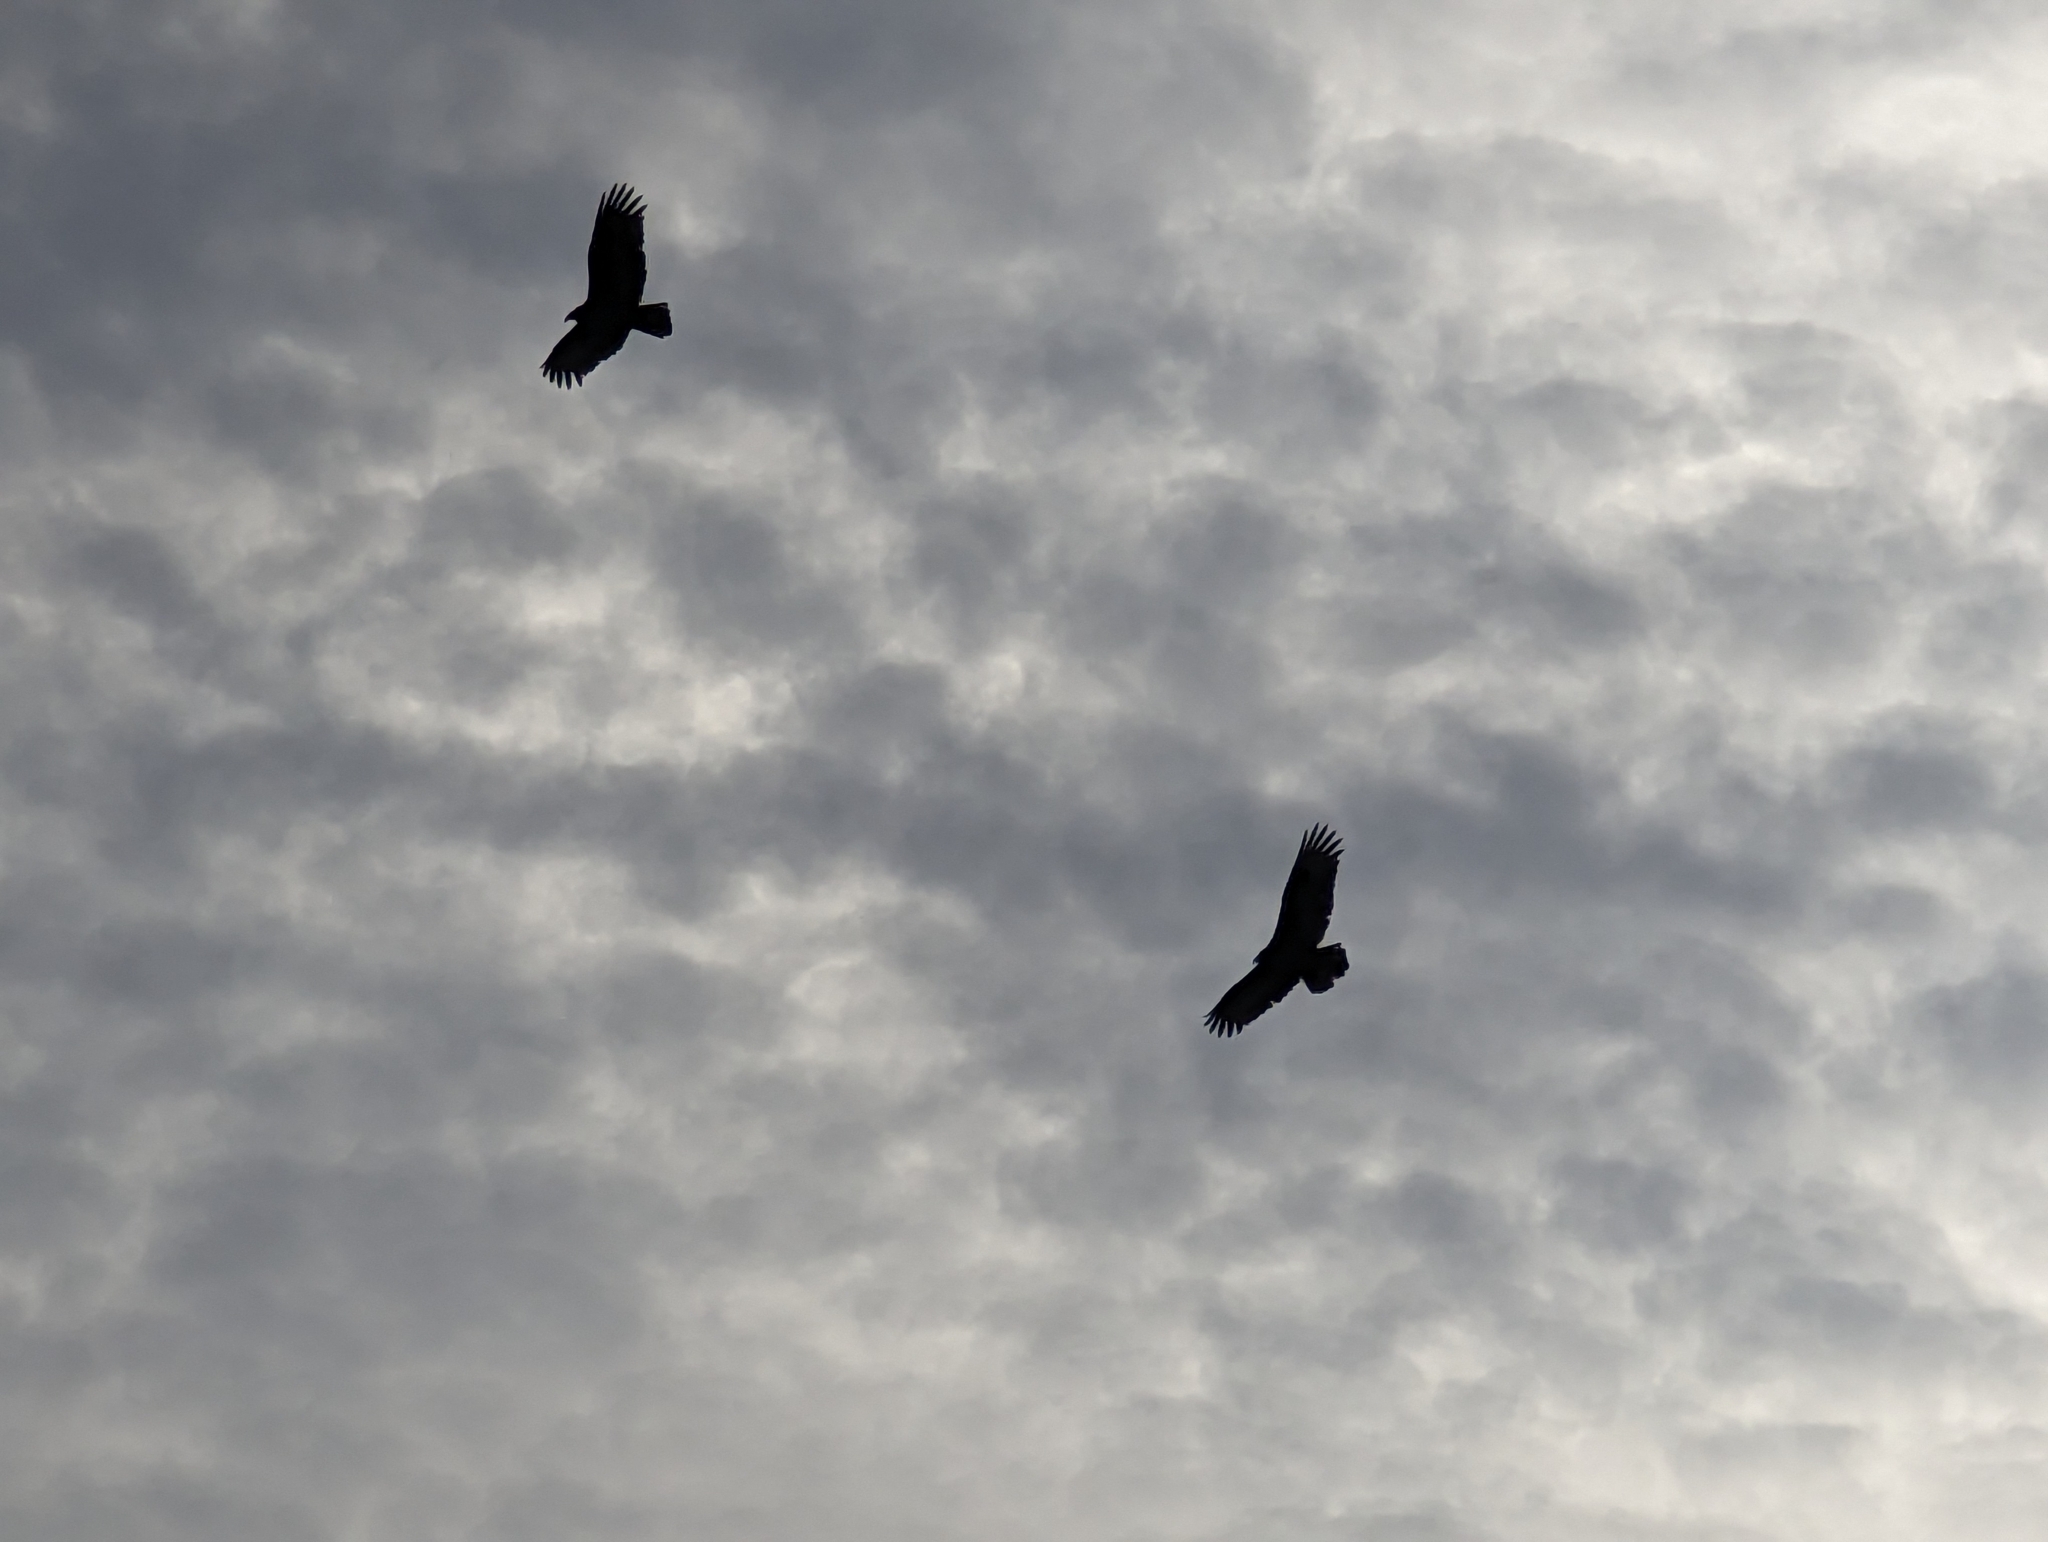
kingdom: Animalia
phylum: Chordata
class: Aves
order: Accipitriformes
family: Cathartidae
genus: Cathartes
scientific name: Cathartes aura
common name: Turkey vulture
